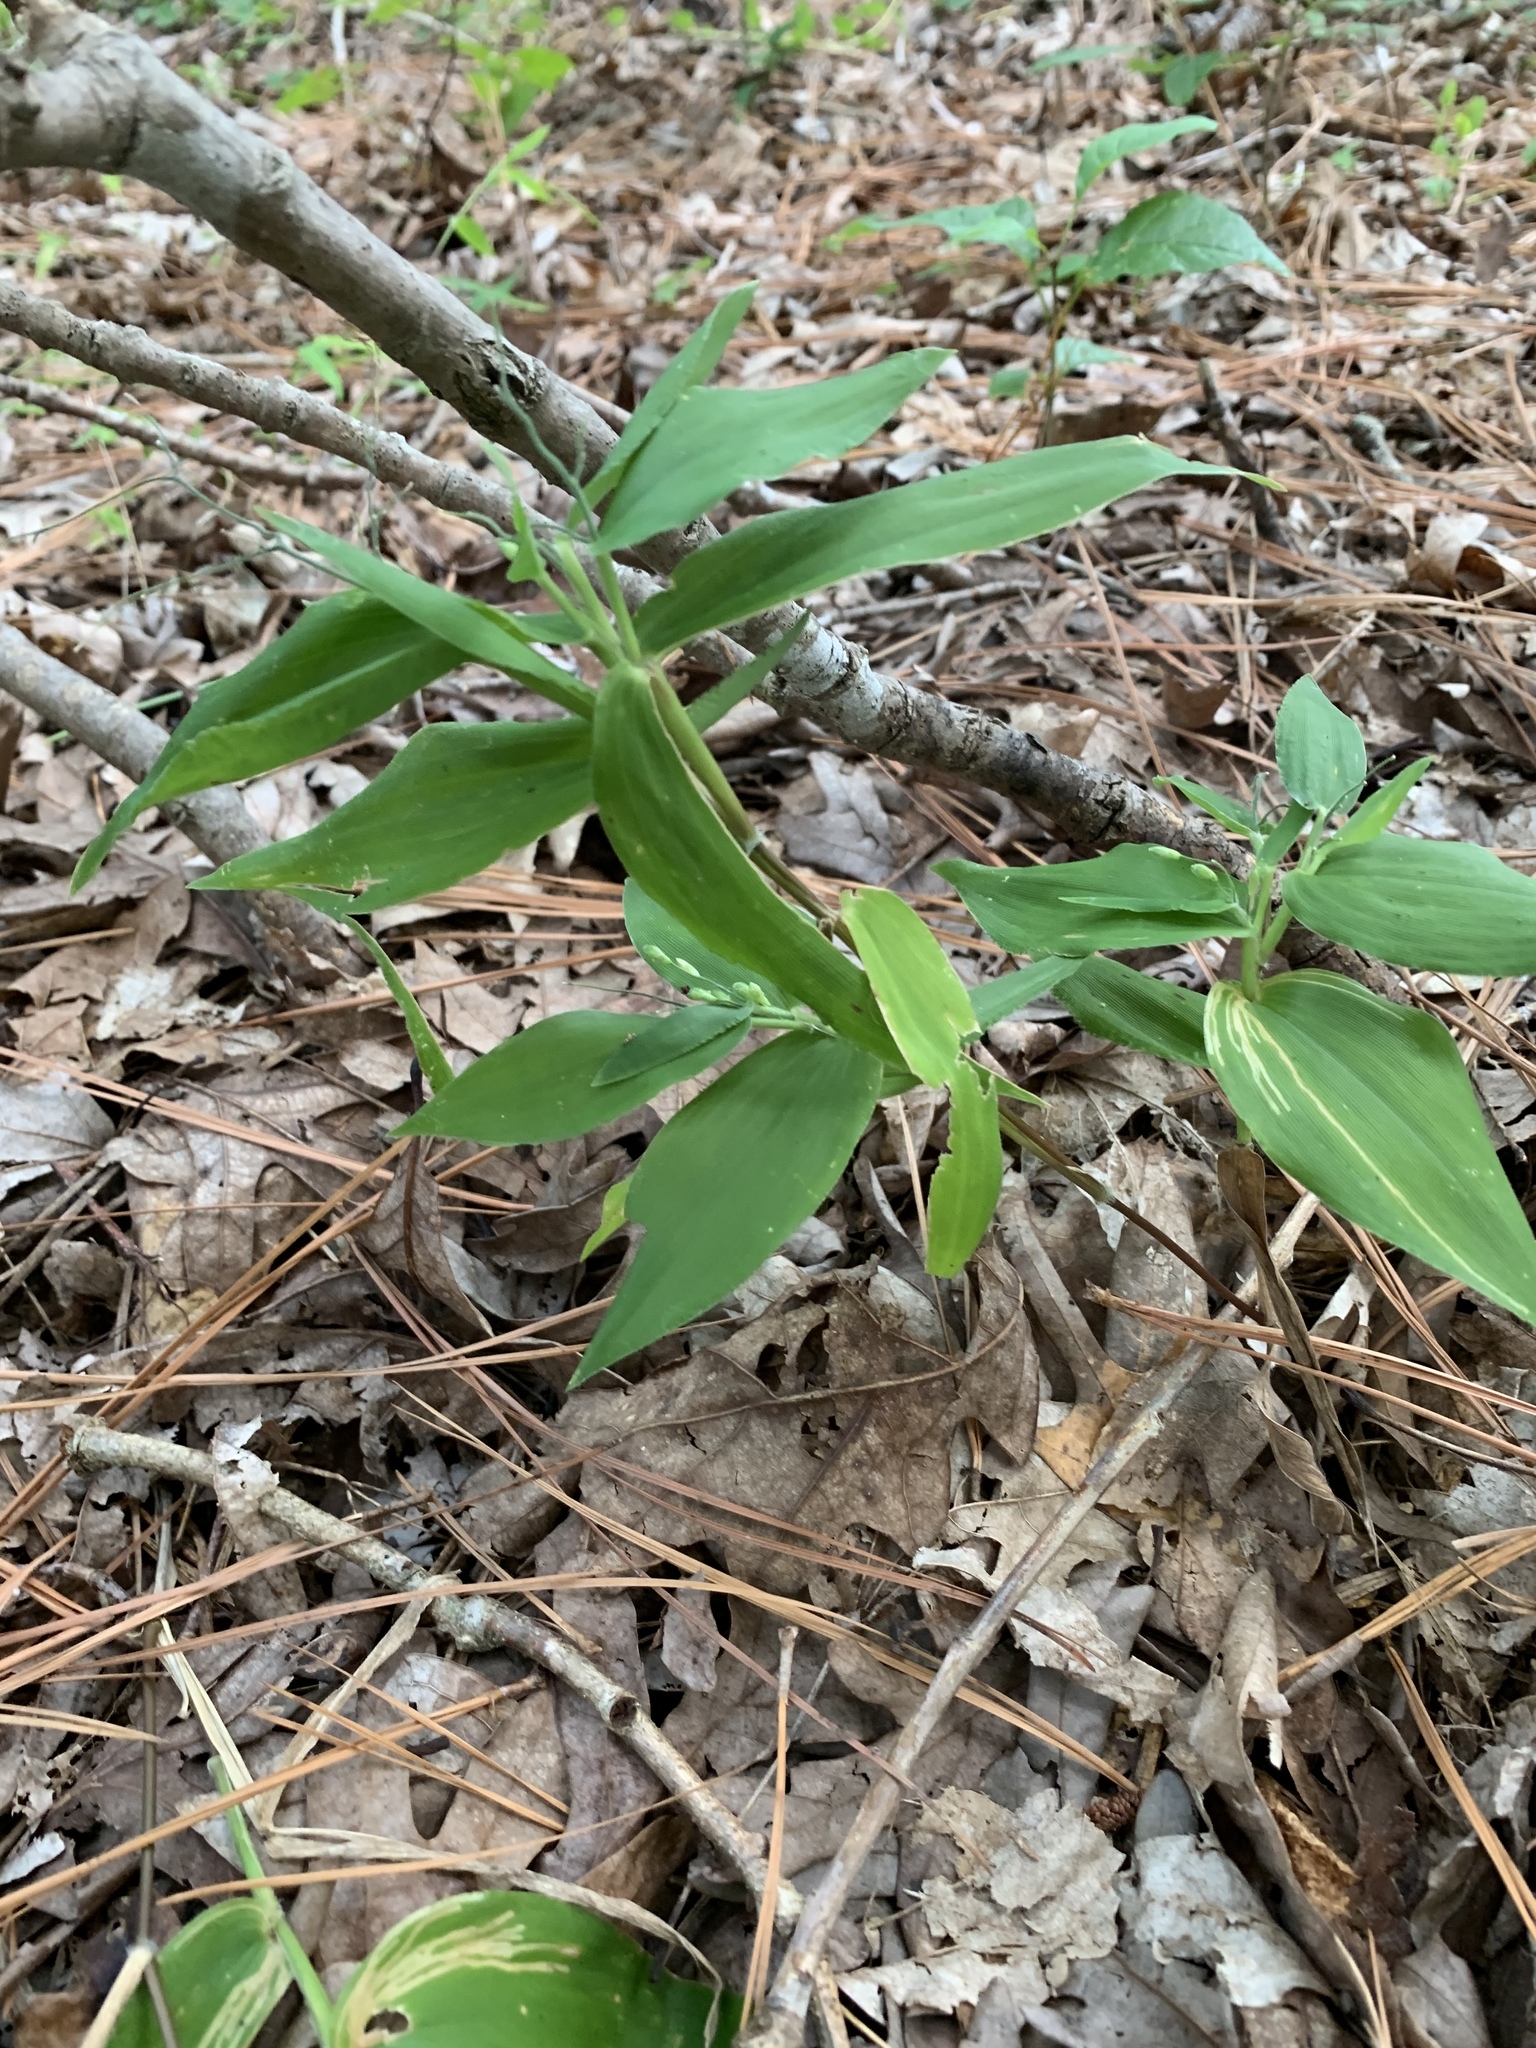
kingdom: Plantae
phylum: Tracheophyta
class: Liliopsida
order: Poales
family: Poaceae
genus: Dichanthelium
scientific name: Dichanthelium boscii
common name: Bosc's panic grass
